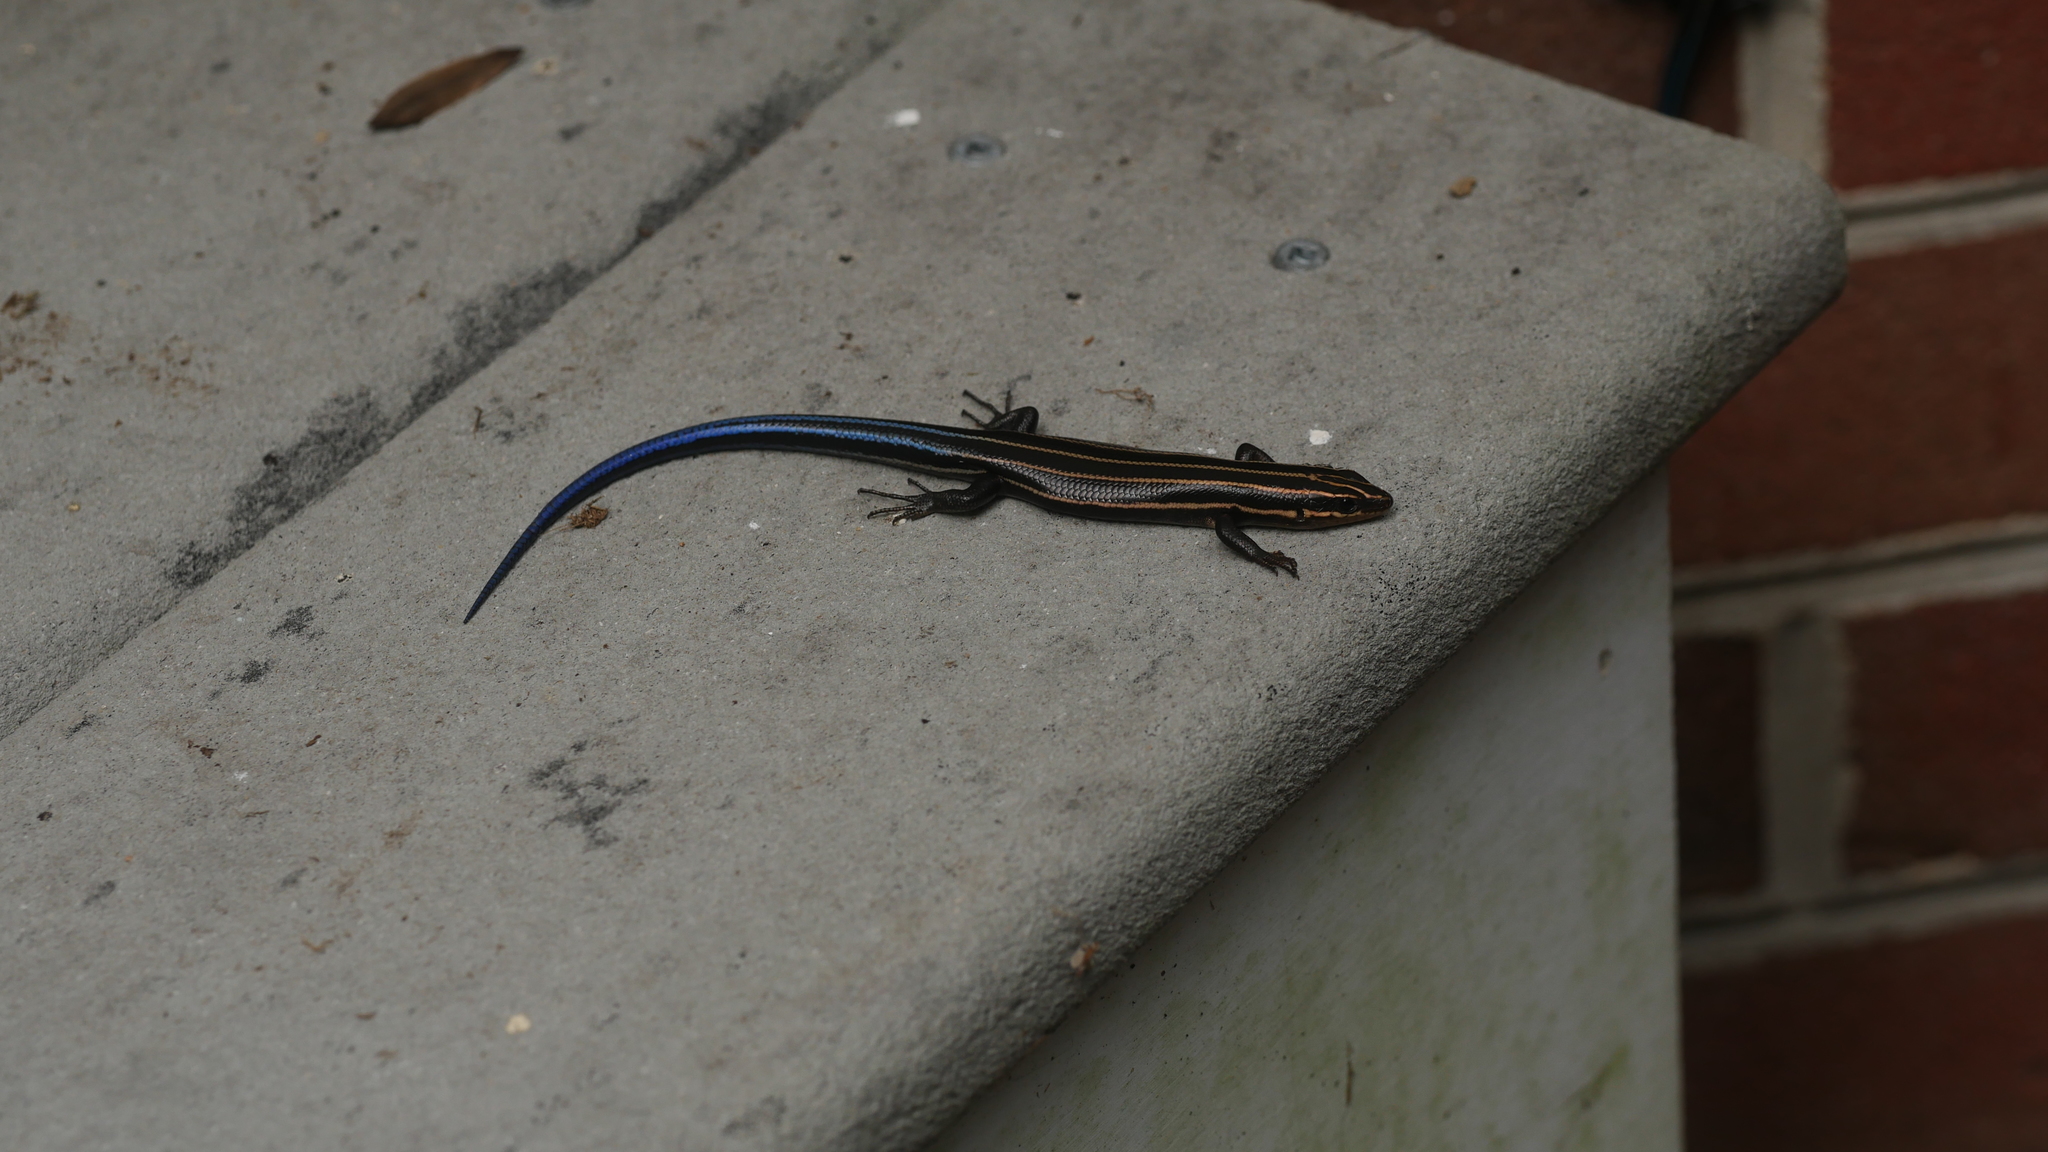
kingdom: Animalia
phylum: Chordata
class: Squamata
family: Scincidae
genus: Plestiodon
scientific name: Plestiodon fasciatus
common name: Five-lined skink
